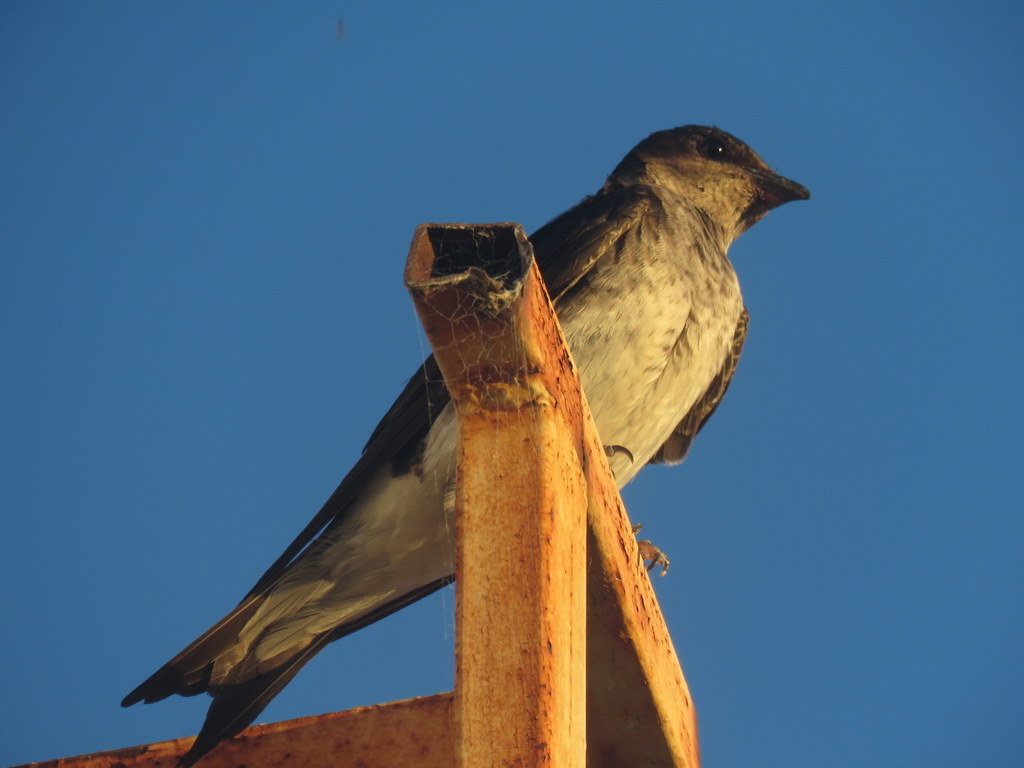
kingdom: Animalia
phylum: Chordata
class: Aves
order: Passeriformes
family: Hirundinidae
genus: Progne
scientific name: Progne chalybea
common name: Grey-breasted martin
